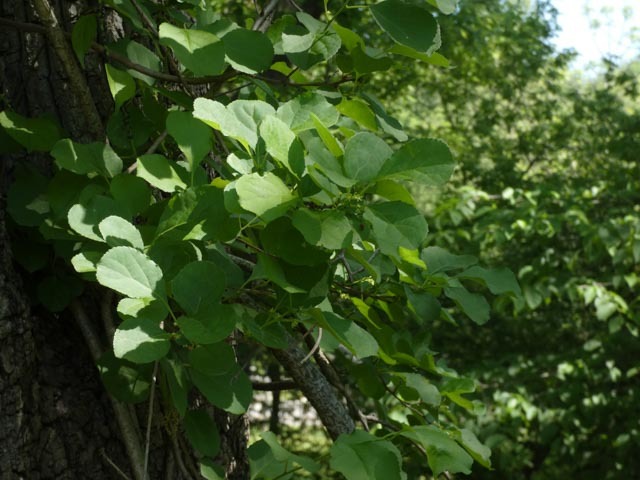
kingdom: Plantae
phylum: Tracheophyta
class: Magnoliopsida
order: Celastrales
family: Celastraceae
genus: Celastrus
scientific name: Celastrus orbiculatus
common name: Oriental bittersweet
